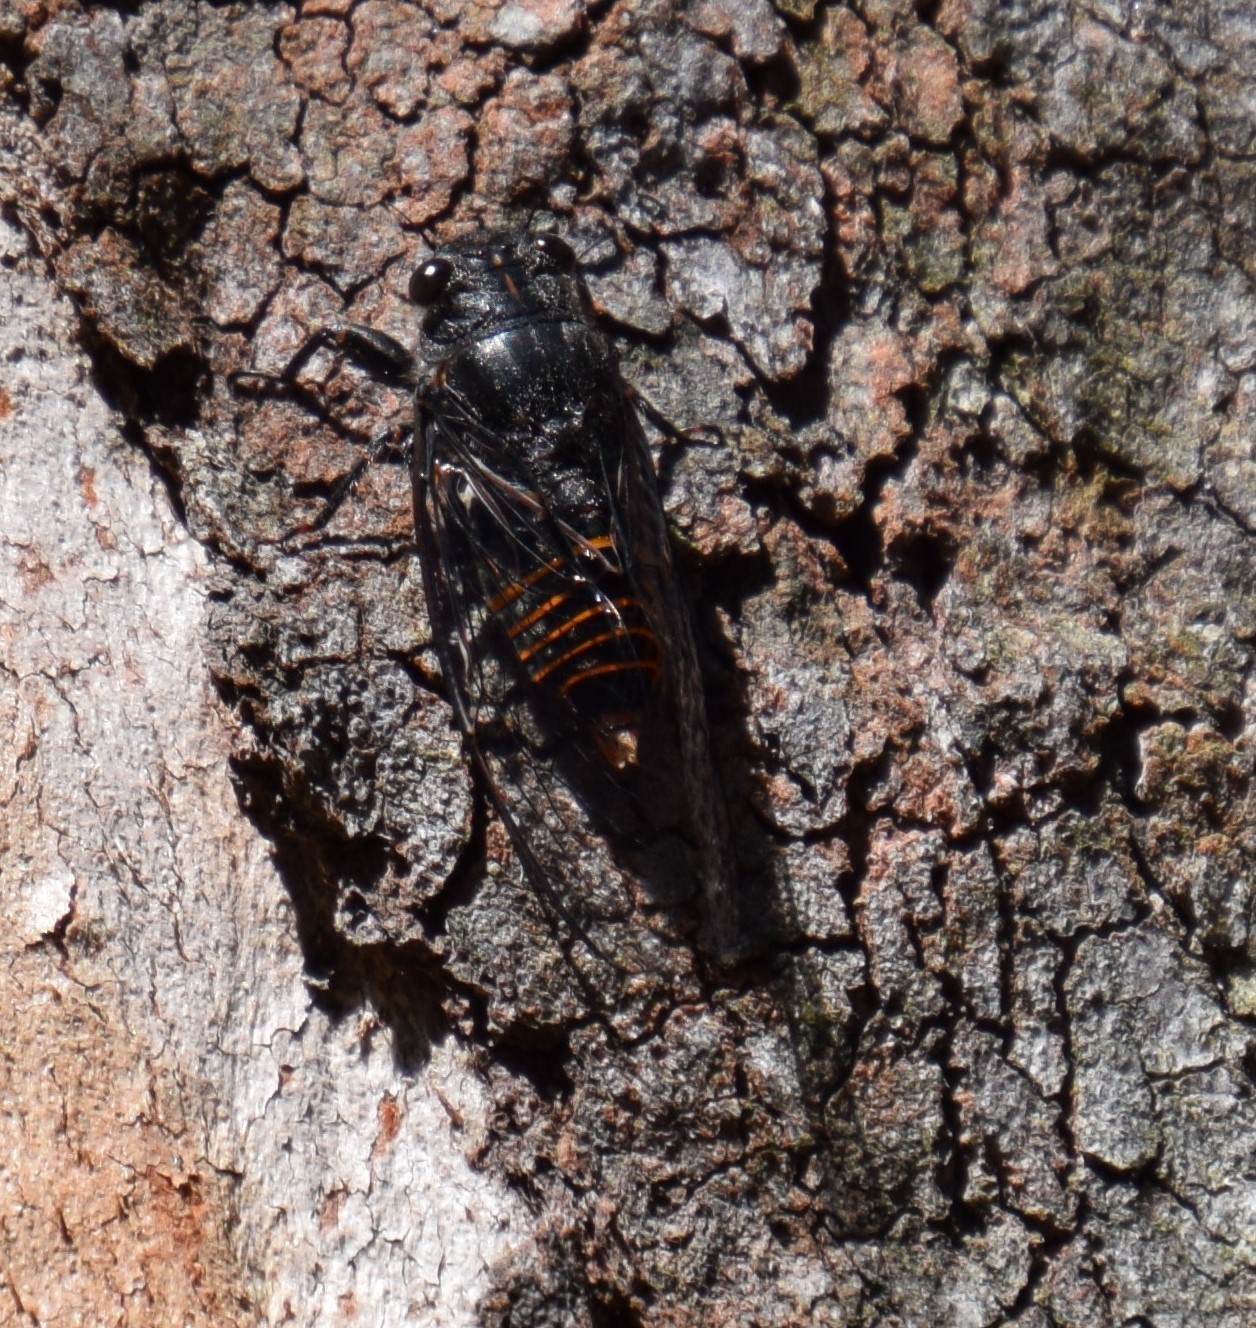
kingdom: Animalia
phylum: Arthropoda
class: Insecta
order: Hemiptera
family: Cicadidae
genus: Pauropsalta
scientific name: Pauropsalta mneme
